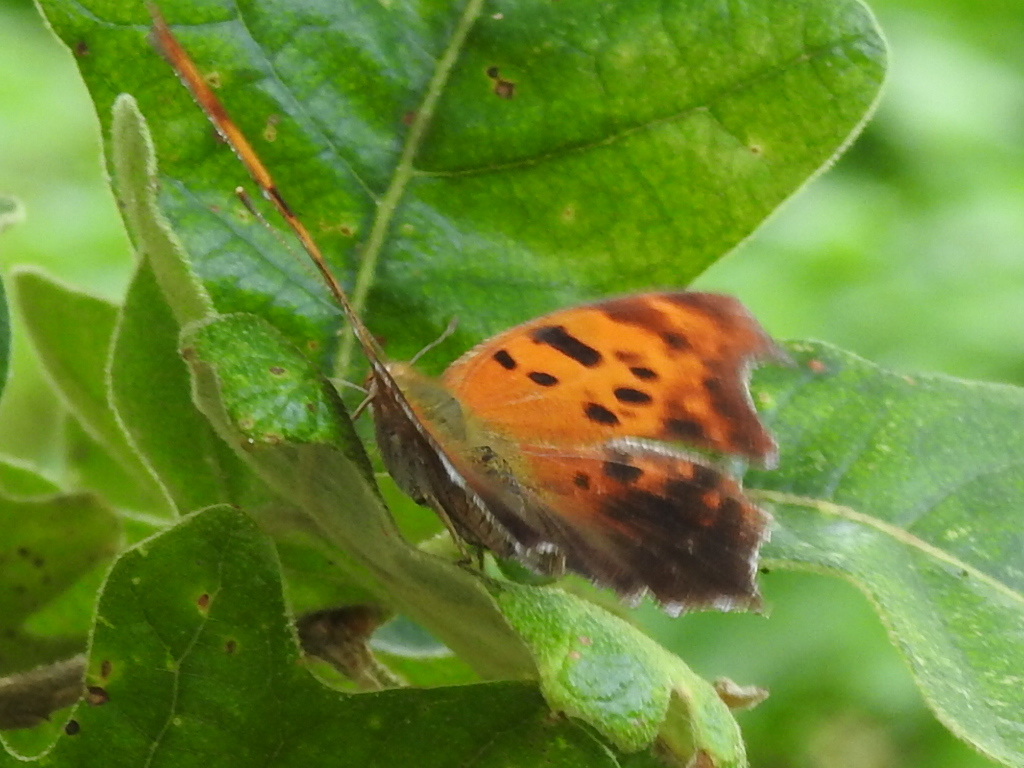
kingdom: Animalia
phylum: Arthropoda
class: Insecta
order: Lepidoptera
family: Nymphalidae
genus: Polygonia
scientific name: Polygonia interrogationis
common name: Question mark
